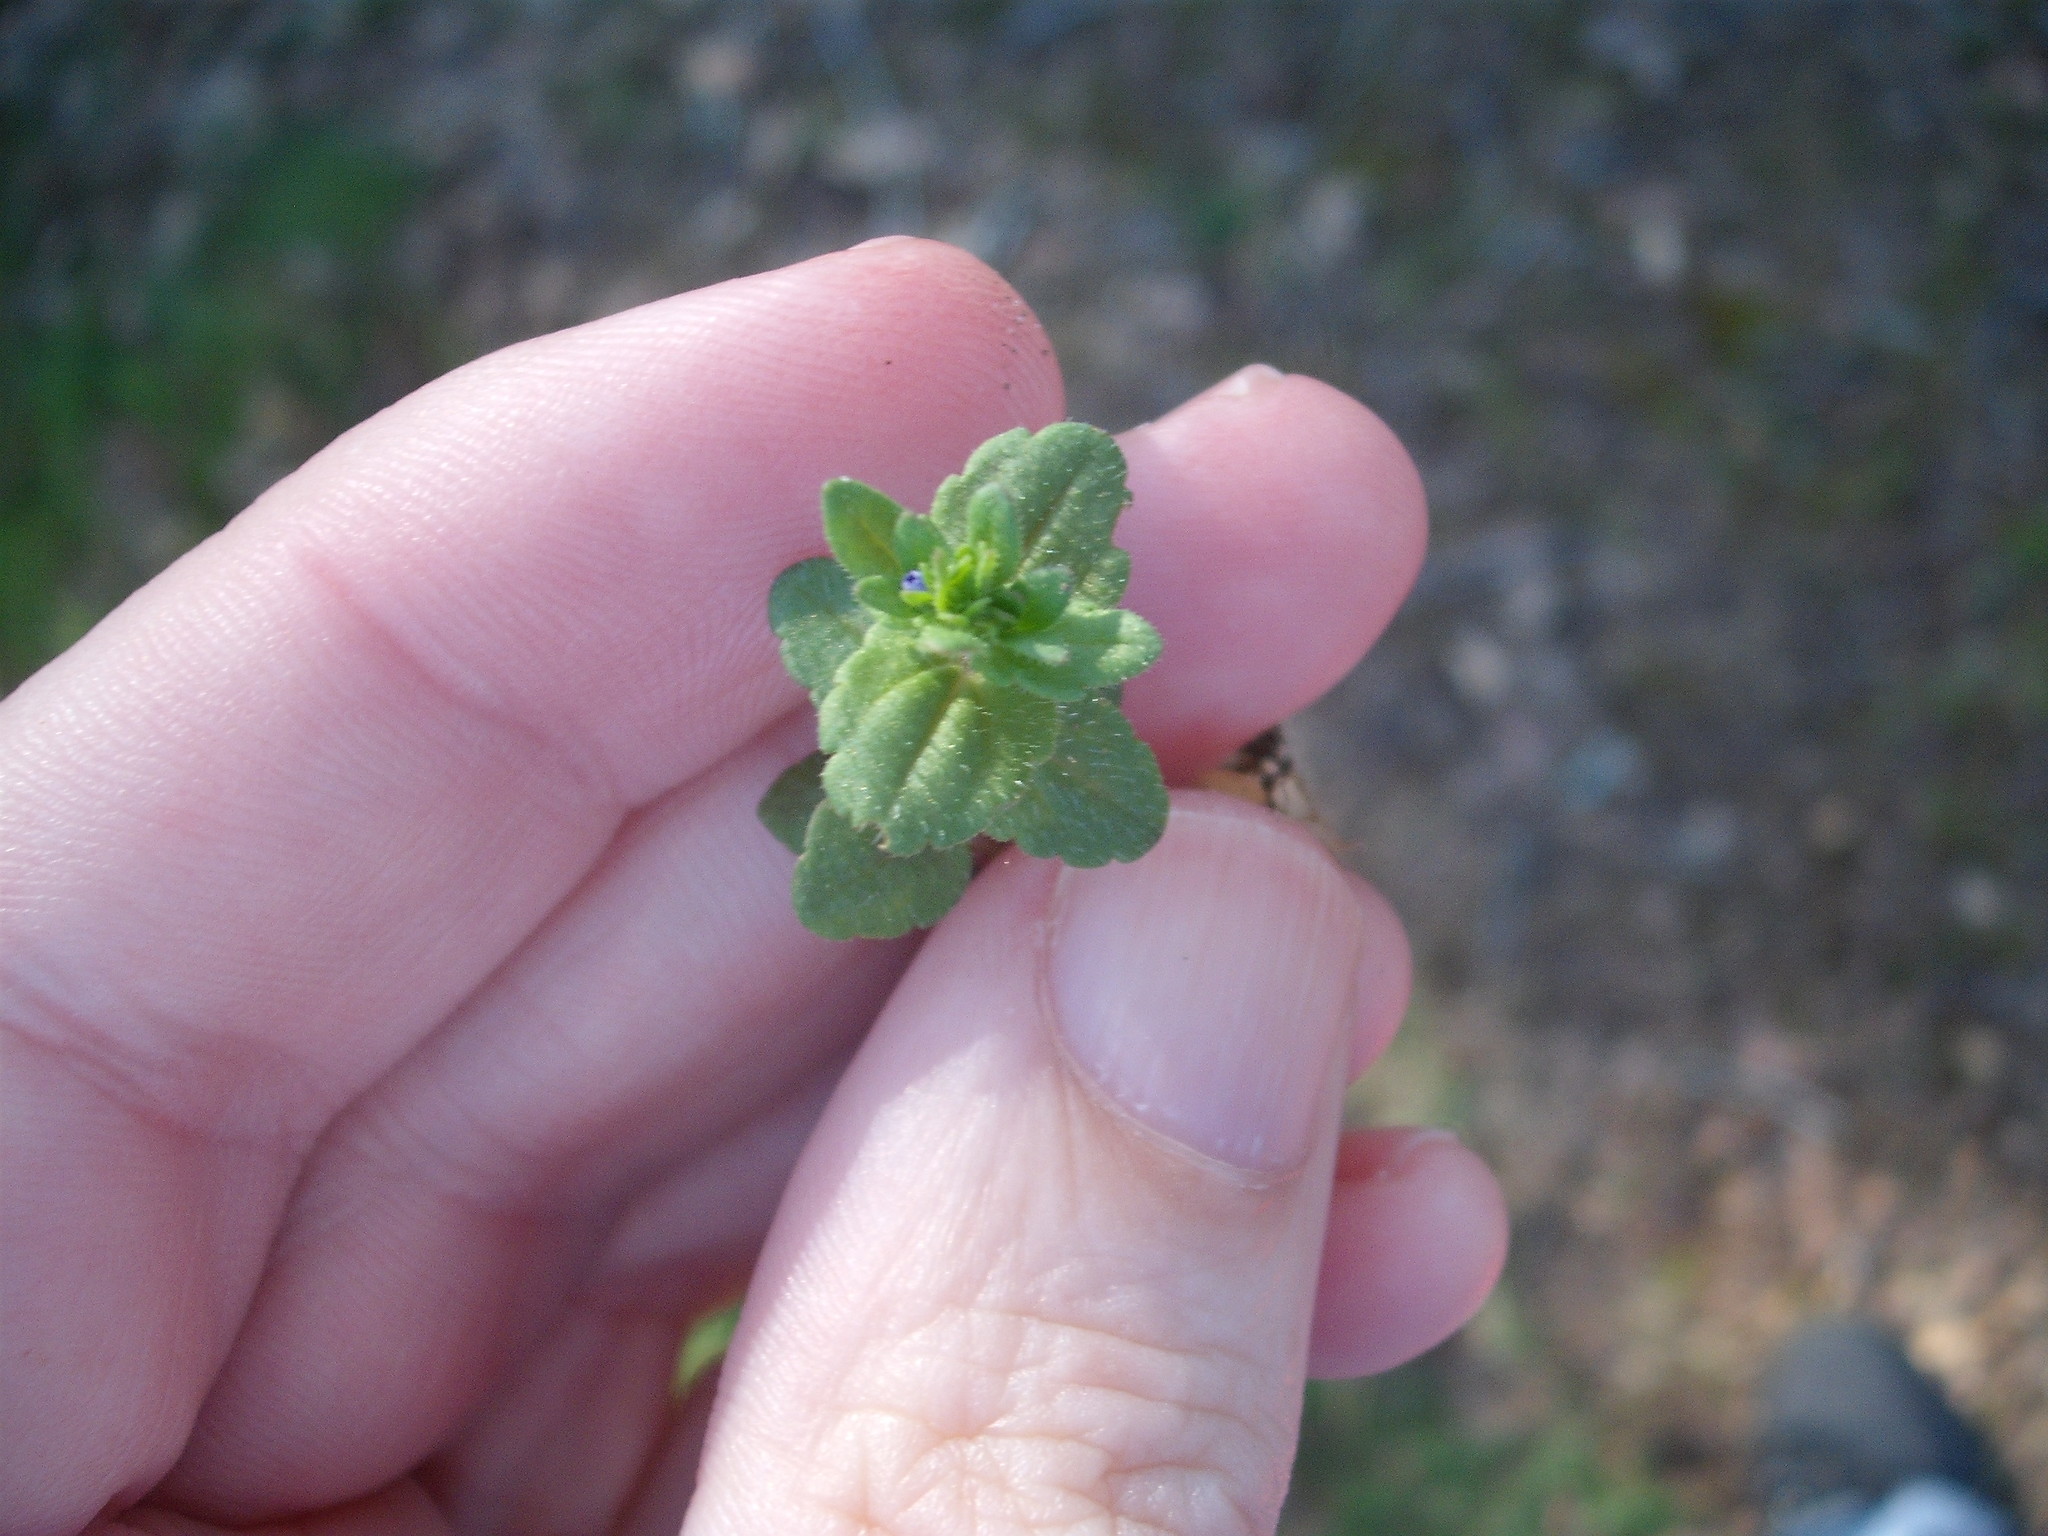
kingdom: Plantae
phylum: Tracheophyta
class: Magnoliopsida
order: Lamiales
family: Plantaginaceae
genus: Veronica
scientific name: Veronica arvensis
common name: Corn speedwell
